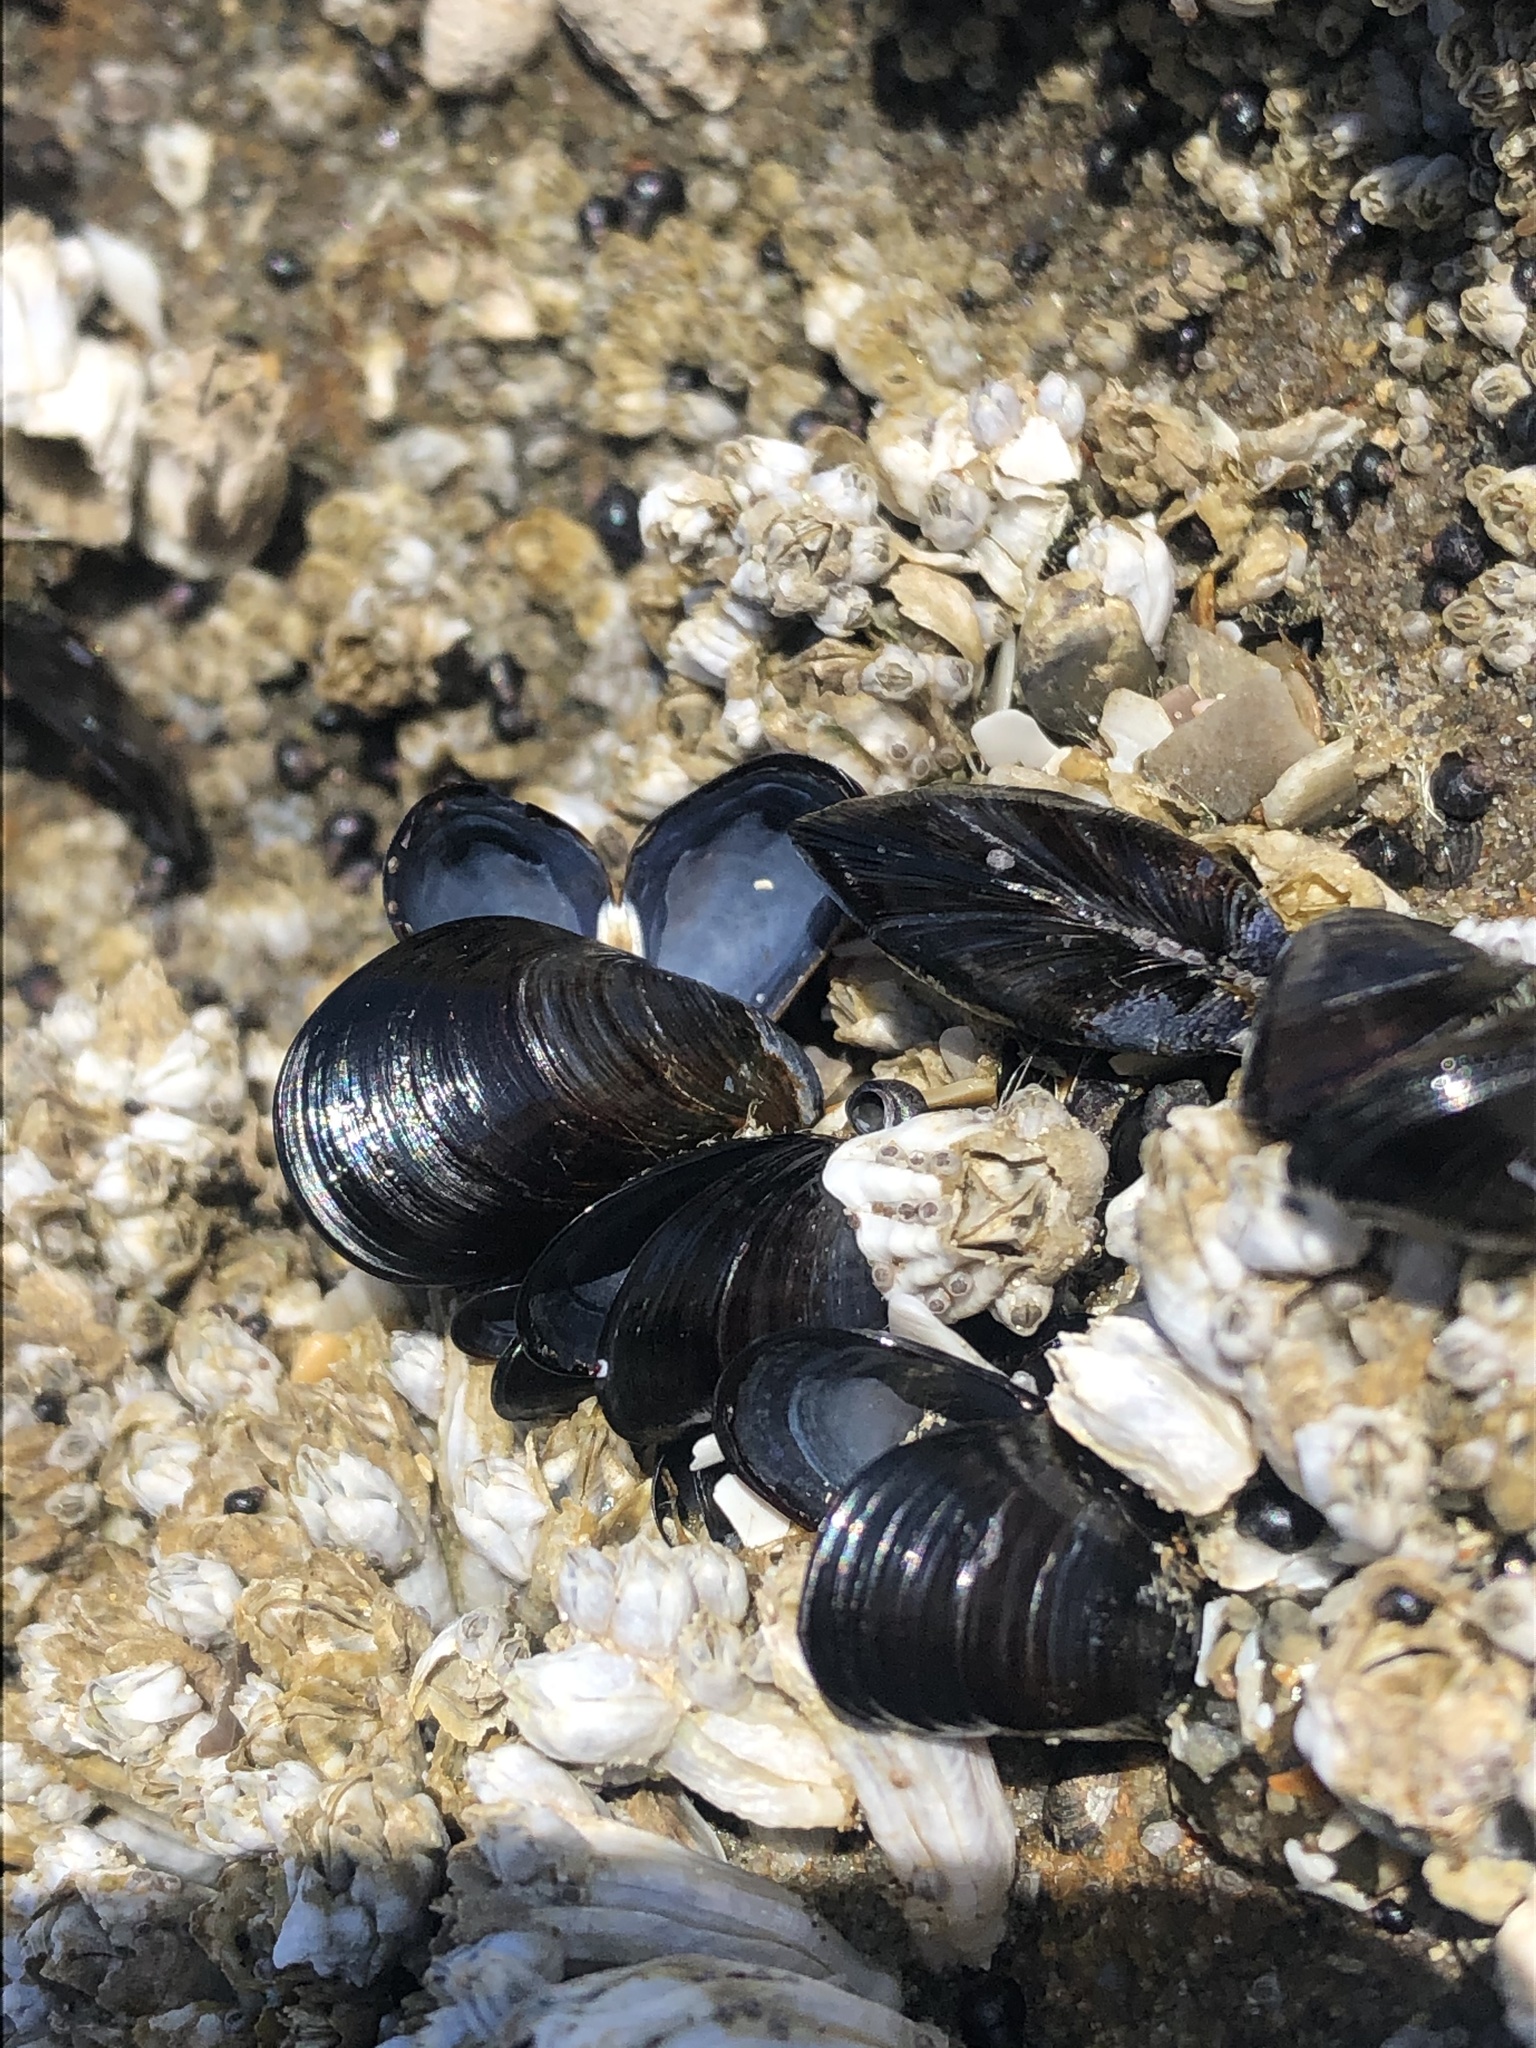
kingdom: Animalia
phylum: Mollusca
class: Bivalvia
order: Mytilida
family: Mytilidae
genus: Mytilus
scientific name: Mytilus trossulus
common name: Northern blue mussel
